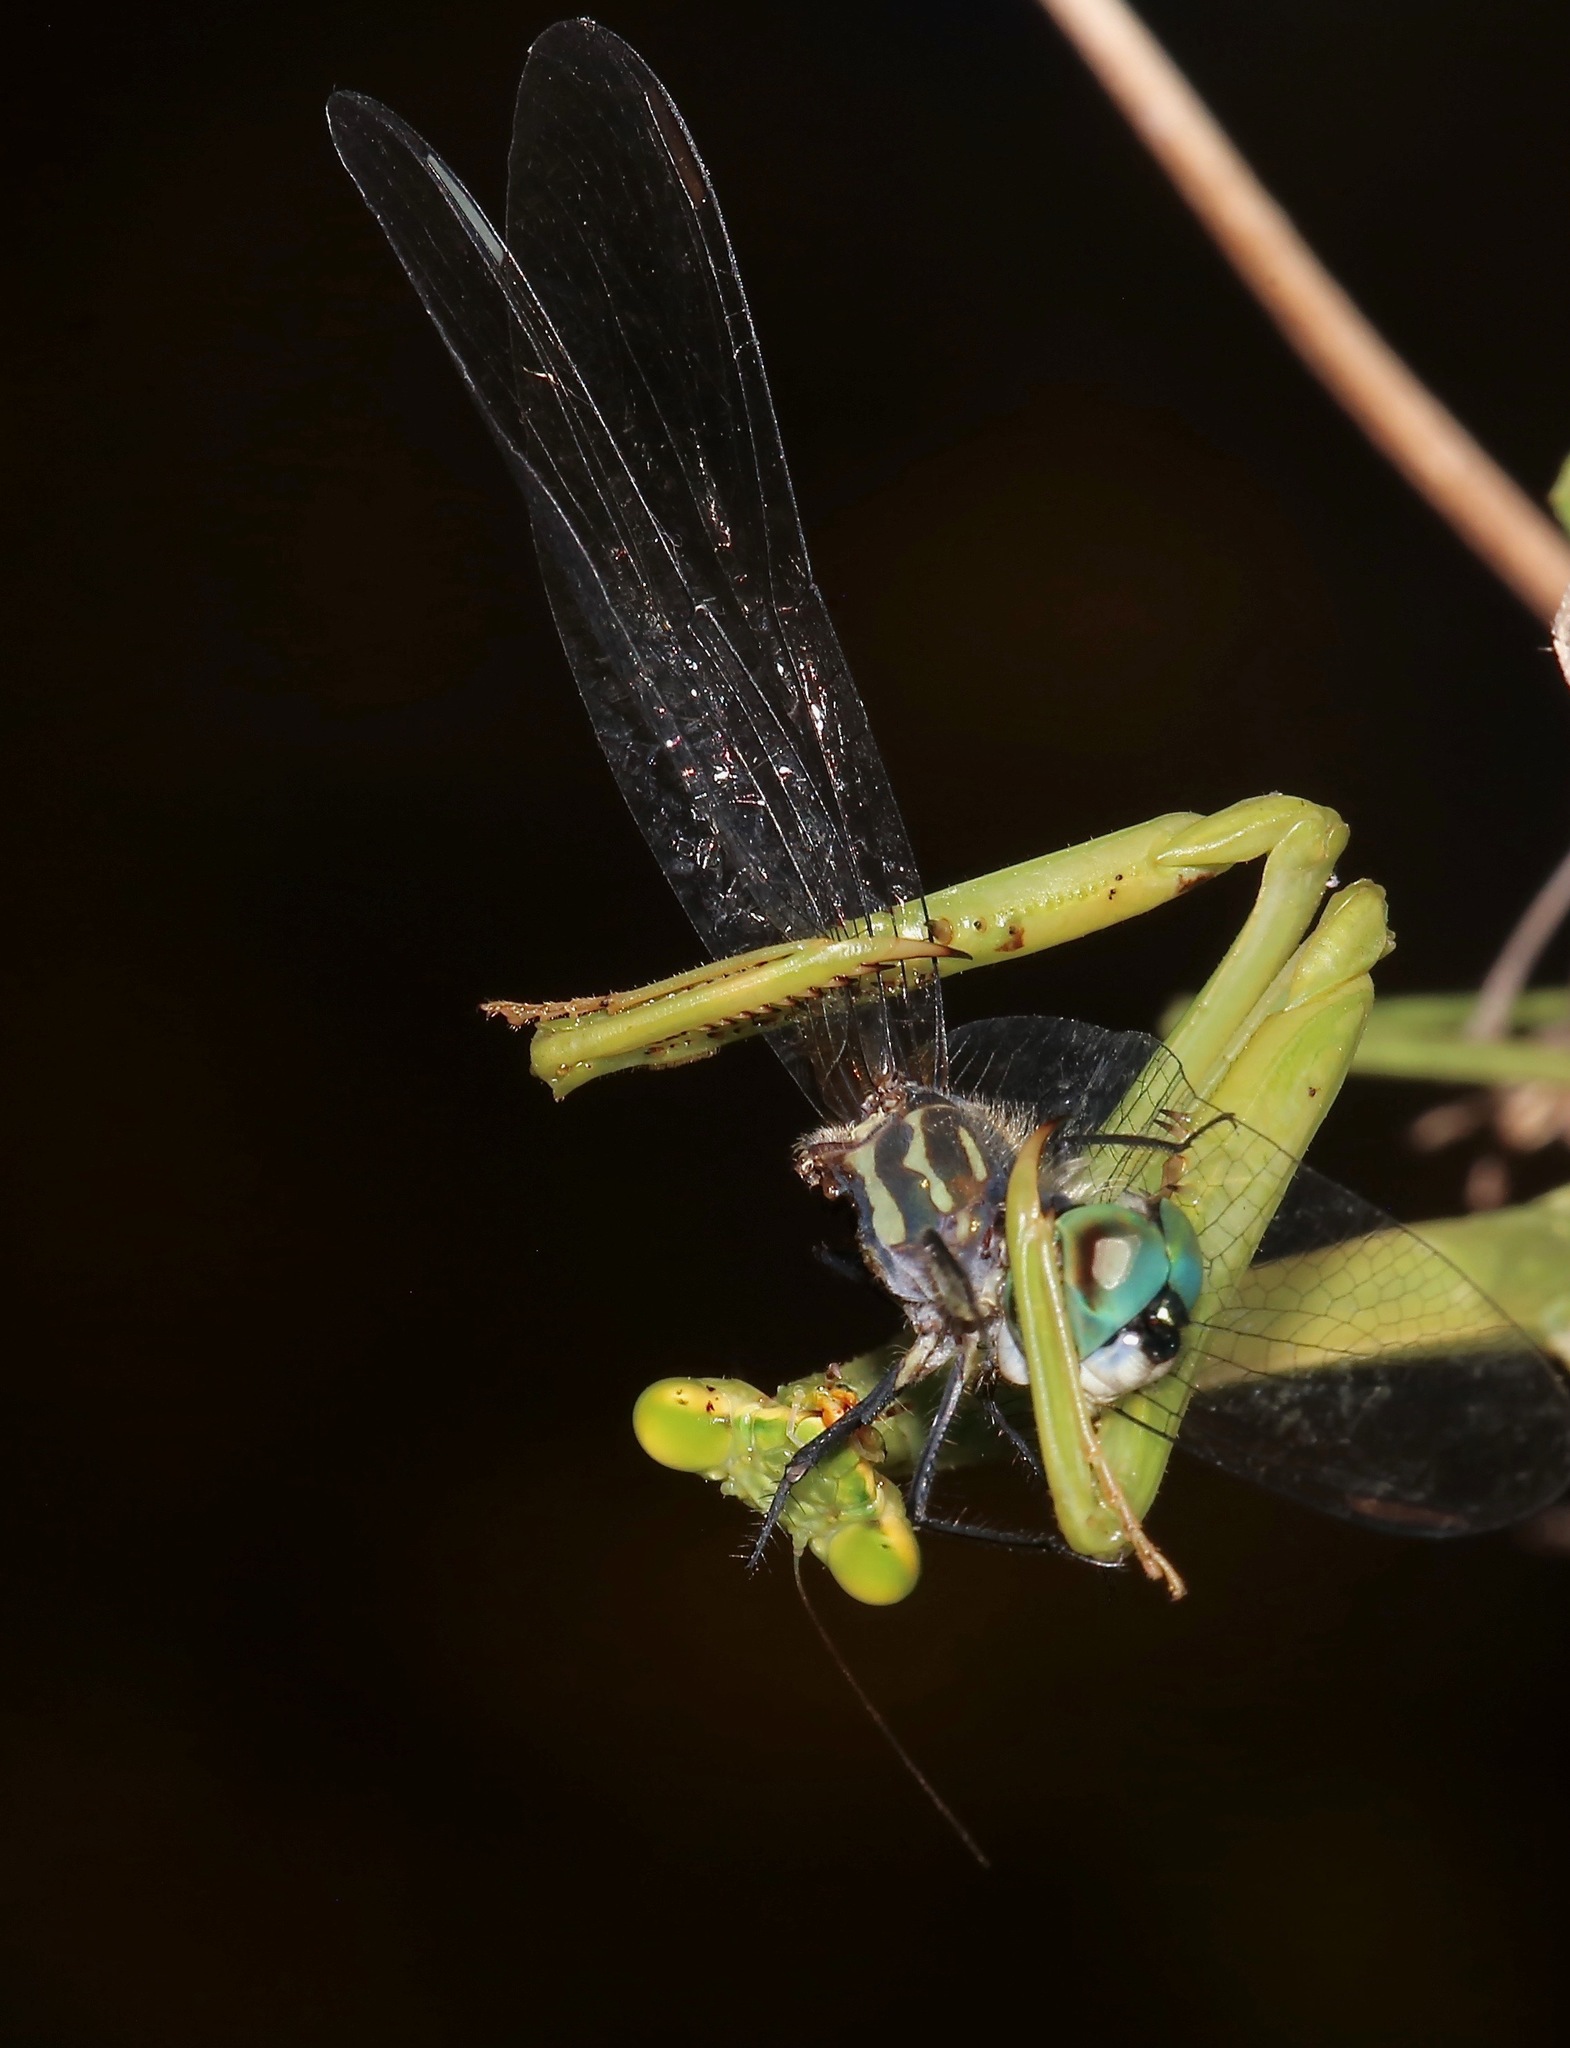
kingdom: Animalia
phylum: Arthropoda
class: Insecta
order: Odonata
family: Libellulidae
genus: Pachydiplax
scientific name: Pachydiplax longipennis
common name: Blue dasher
